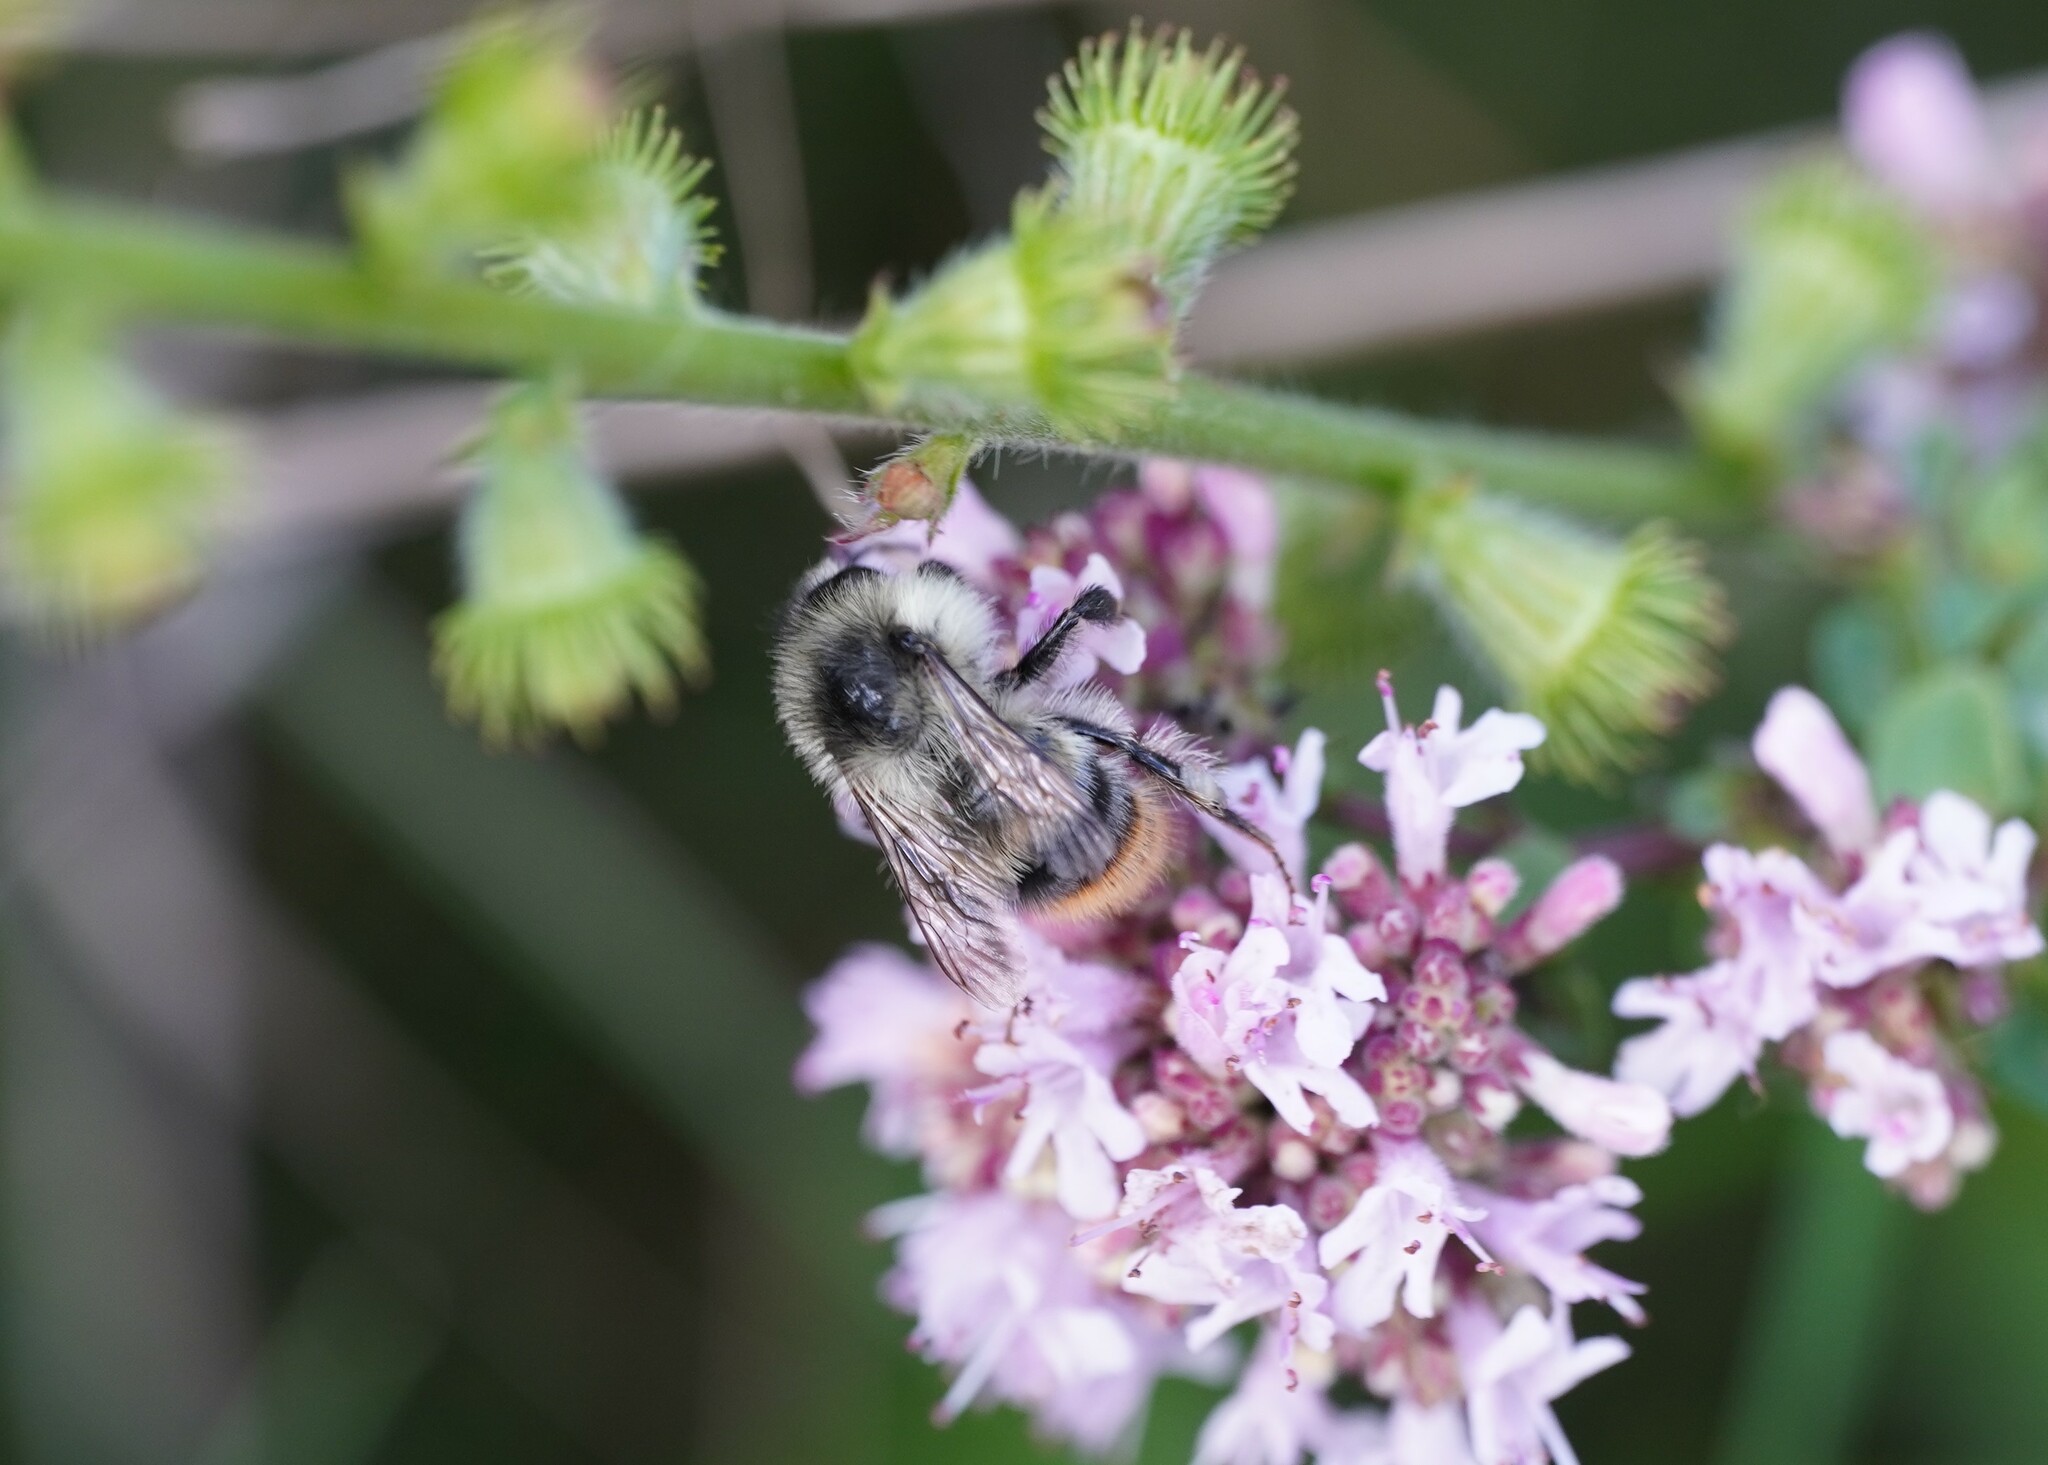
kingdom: Animalia
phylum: Arthropoda
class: Insecta
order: Hymenoptera
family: Apidae
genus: Bombus
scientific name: Bombus sylvarum
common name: Shrill carder bee
